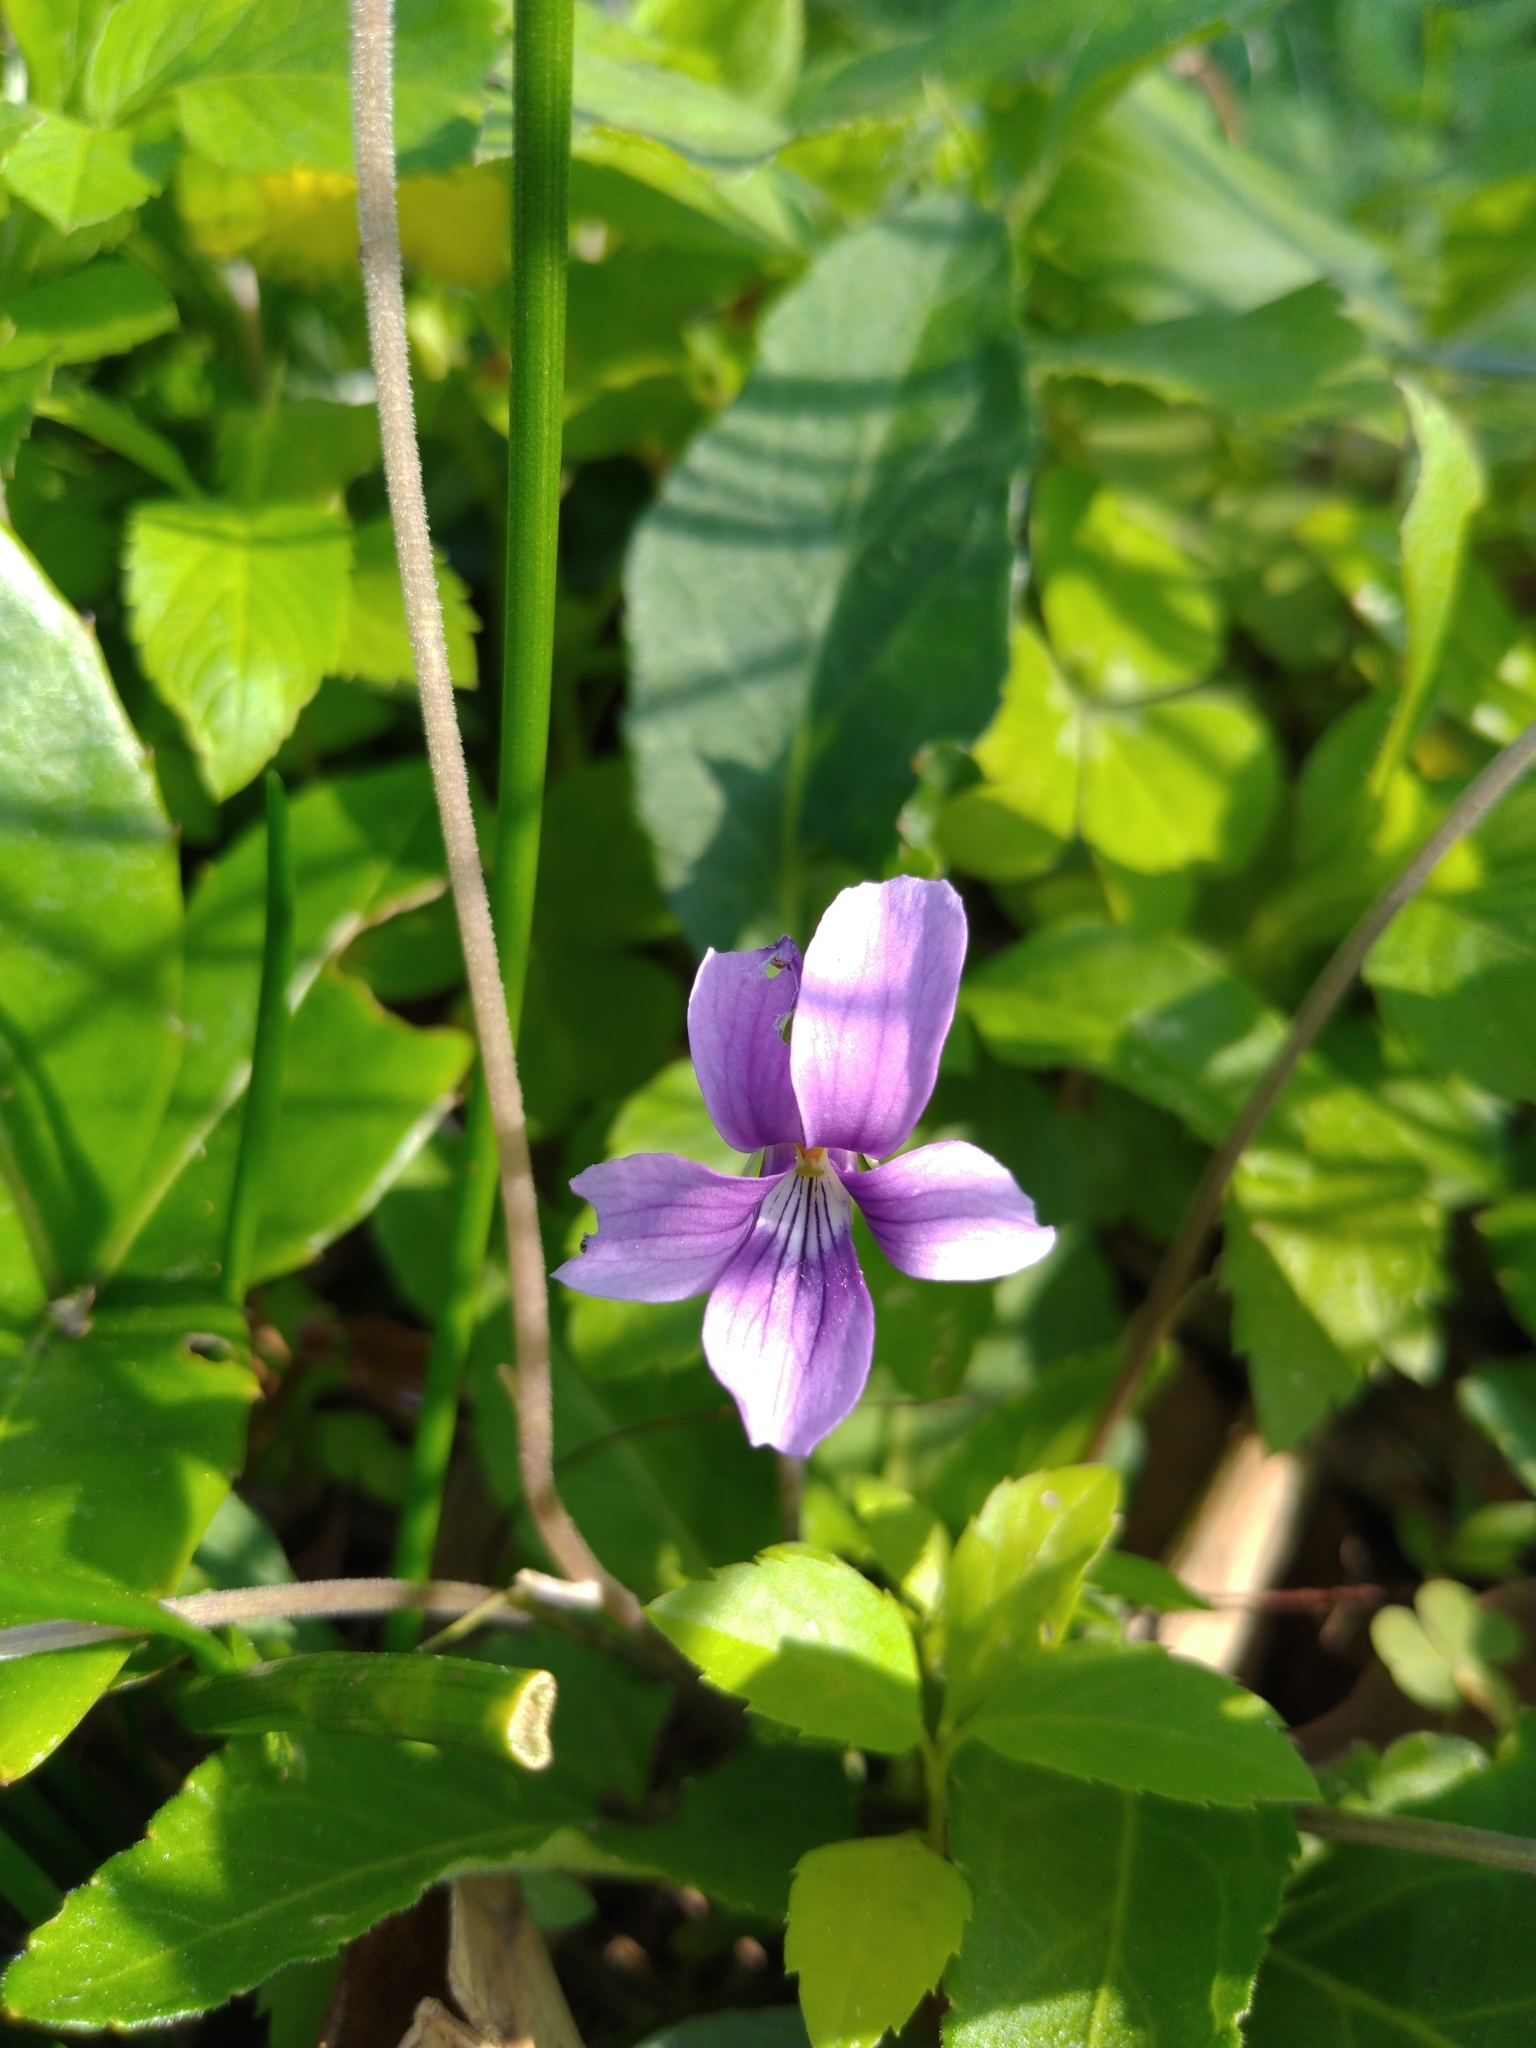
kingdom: Plantae
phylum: Tracheophyta
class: Magnoliopsida
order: Malpighiales
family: Violaceae
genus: Viola
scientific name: Viola
